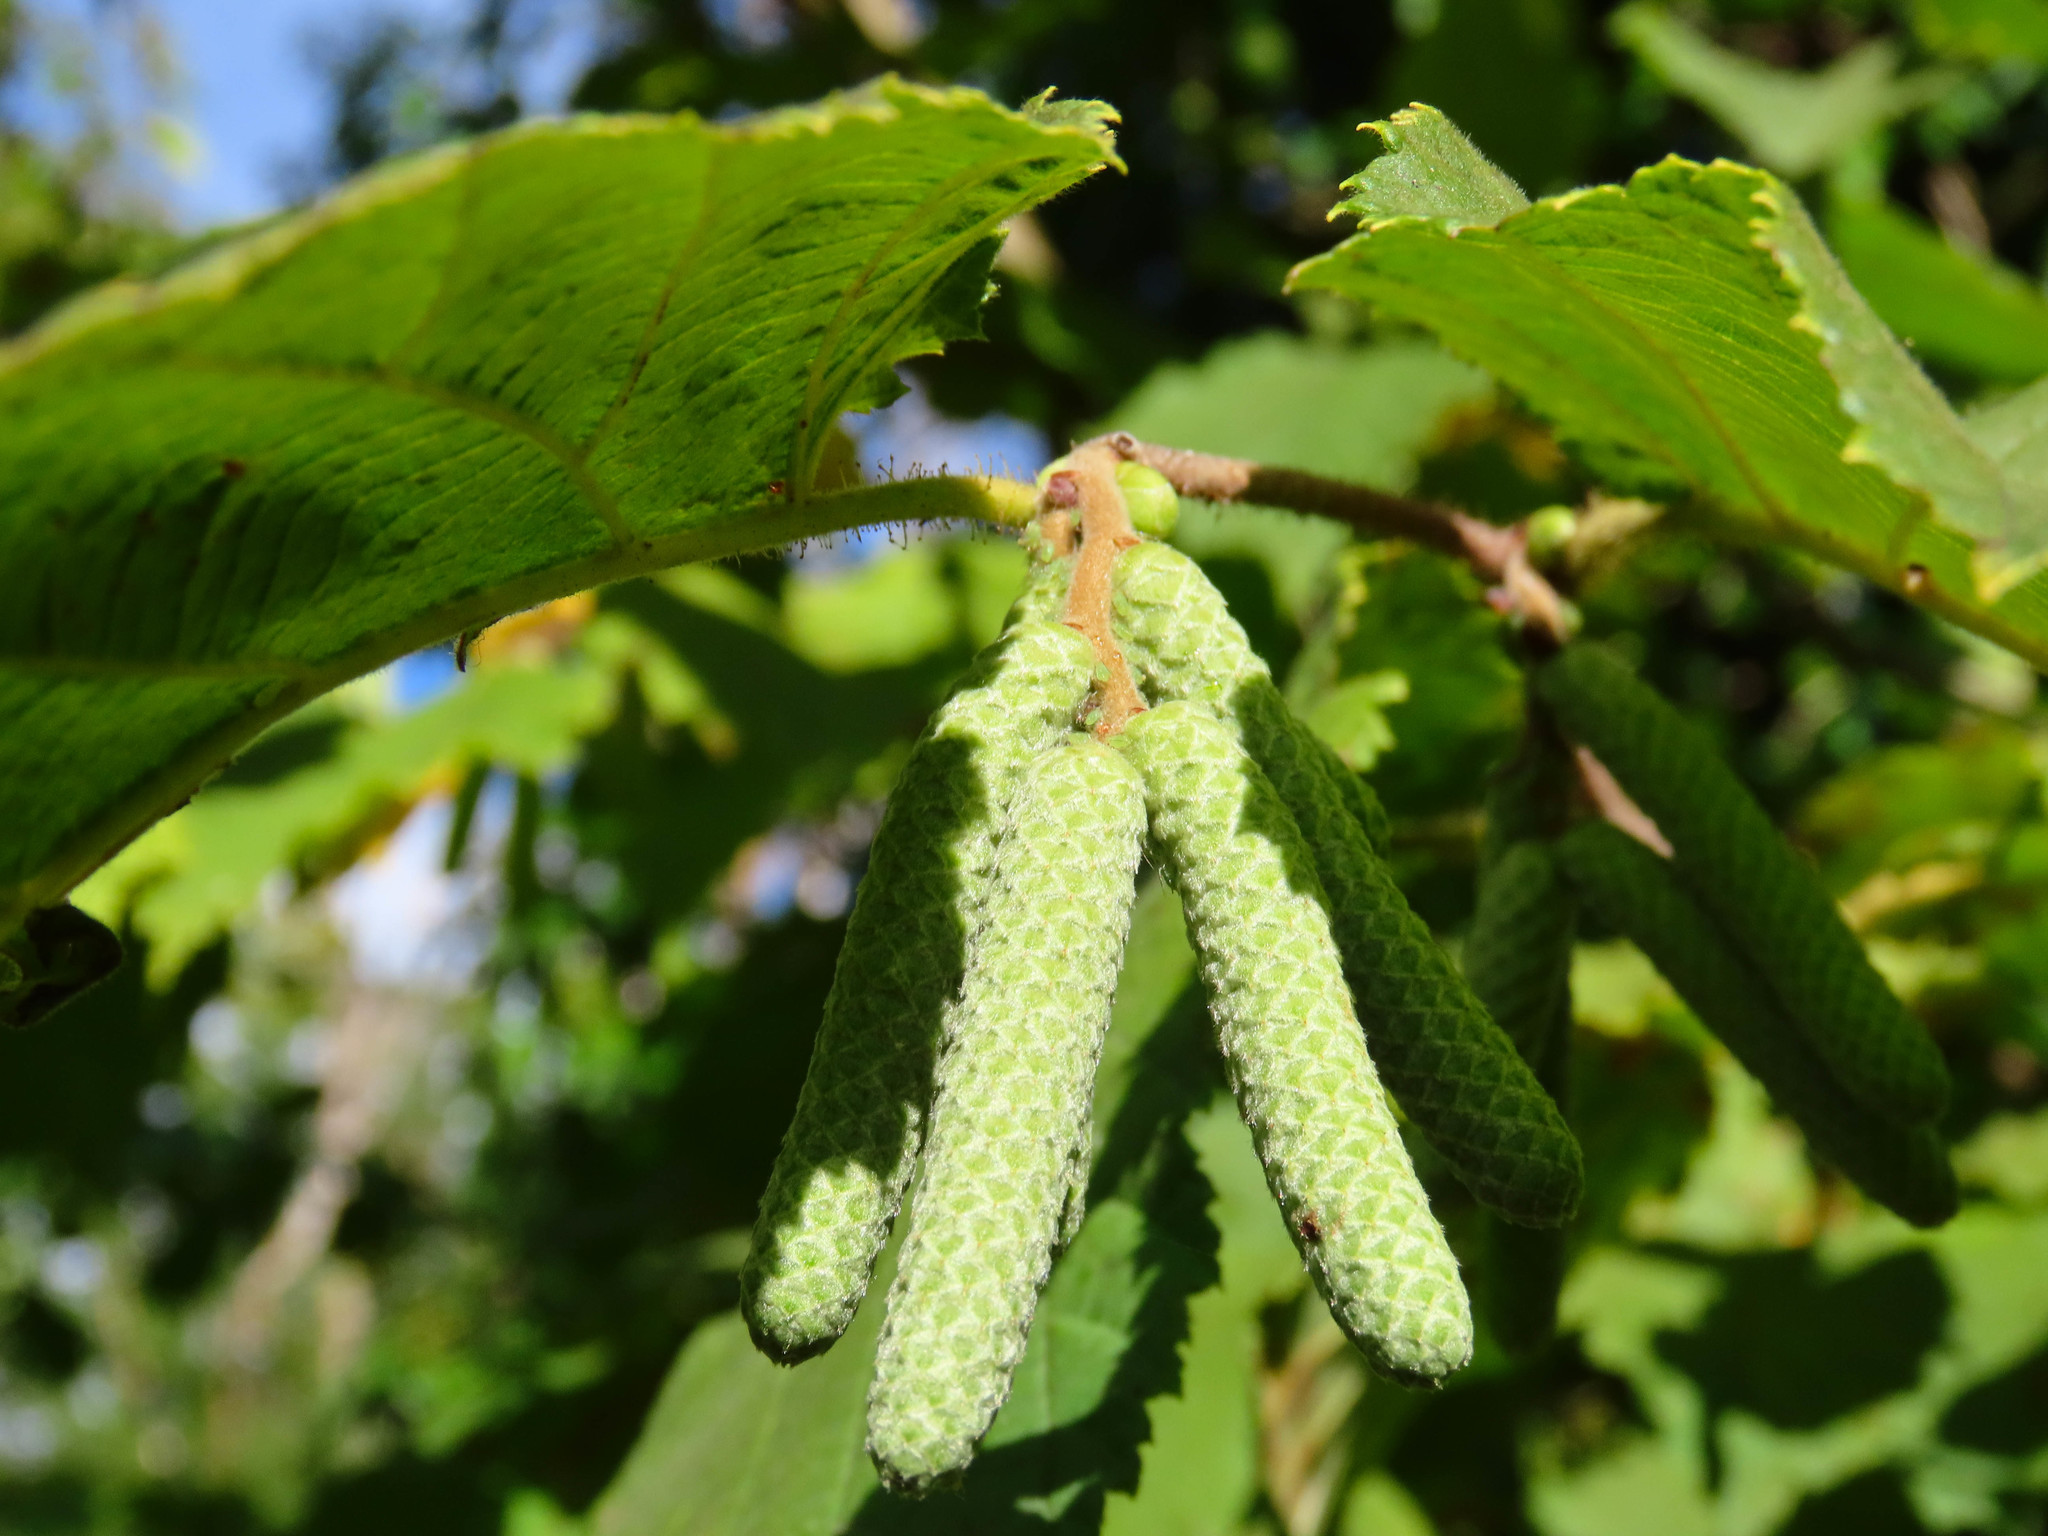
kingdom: Plantae
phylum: Tracheophyta
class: Magnoliopsida
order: Fagales
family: Betulaceae
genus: Corylus
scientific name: Corylus avellana
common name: European hazel
